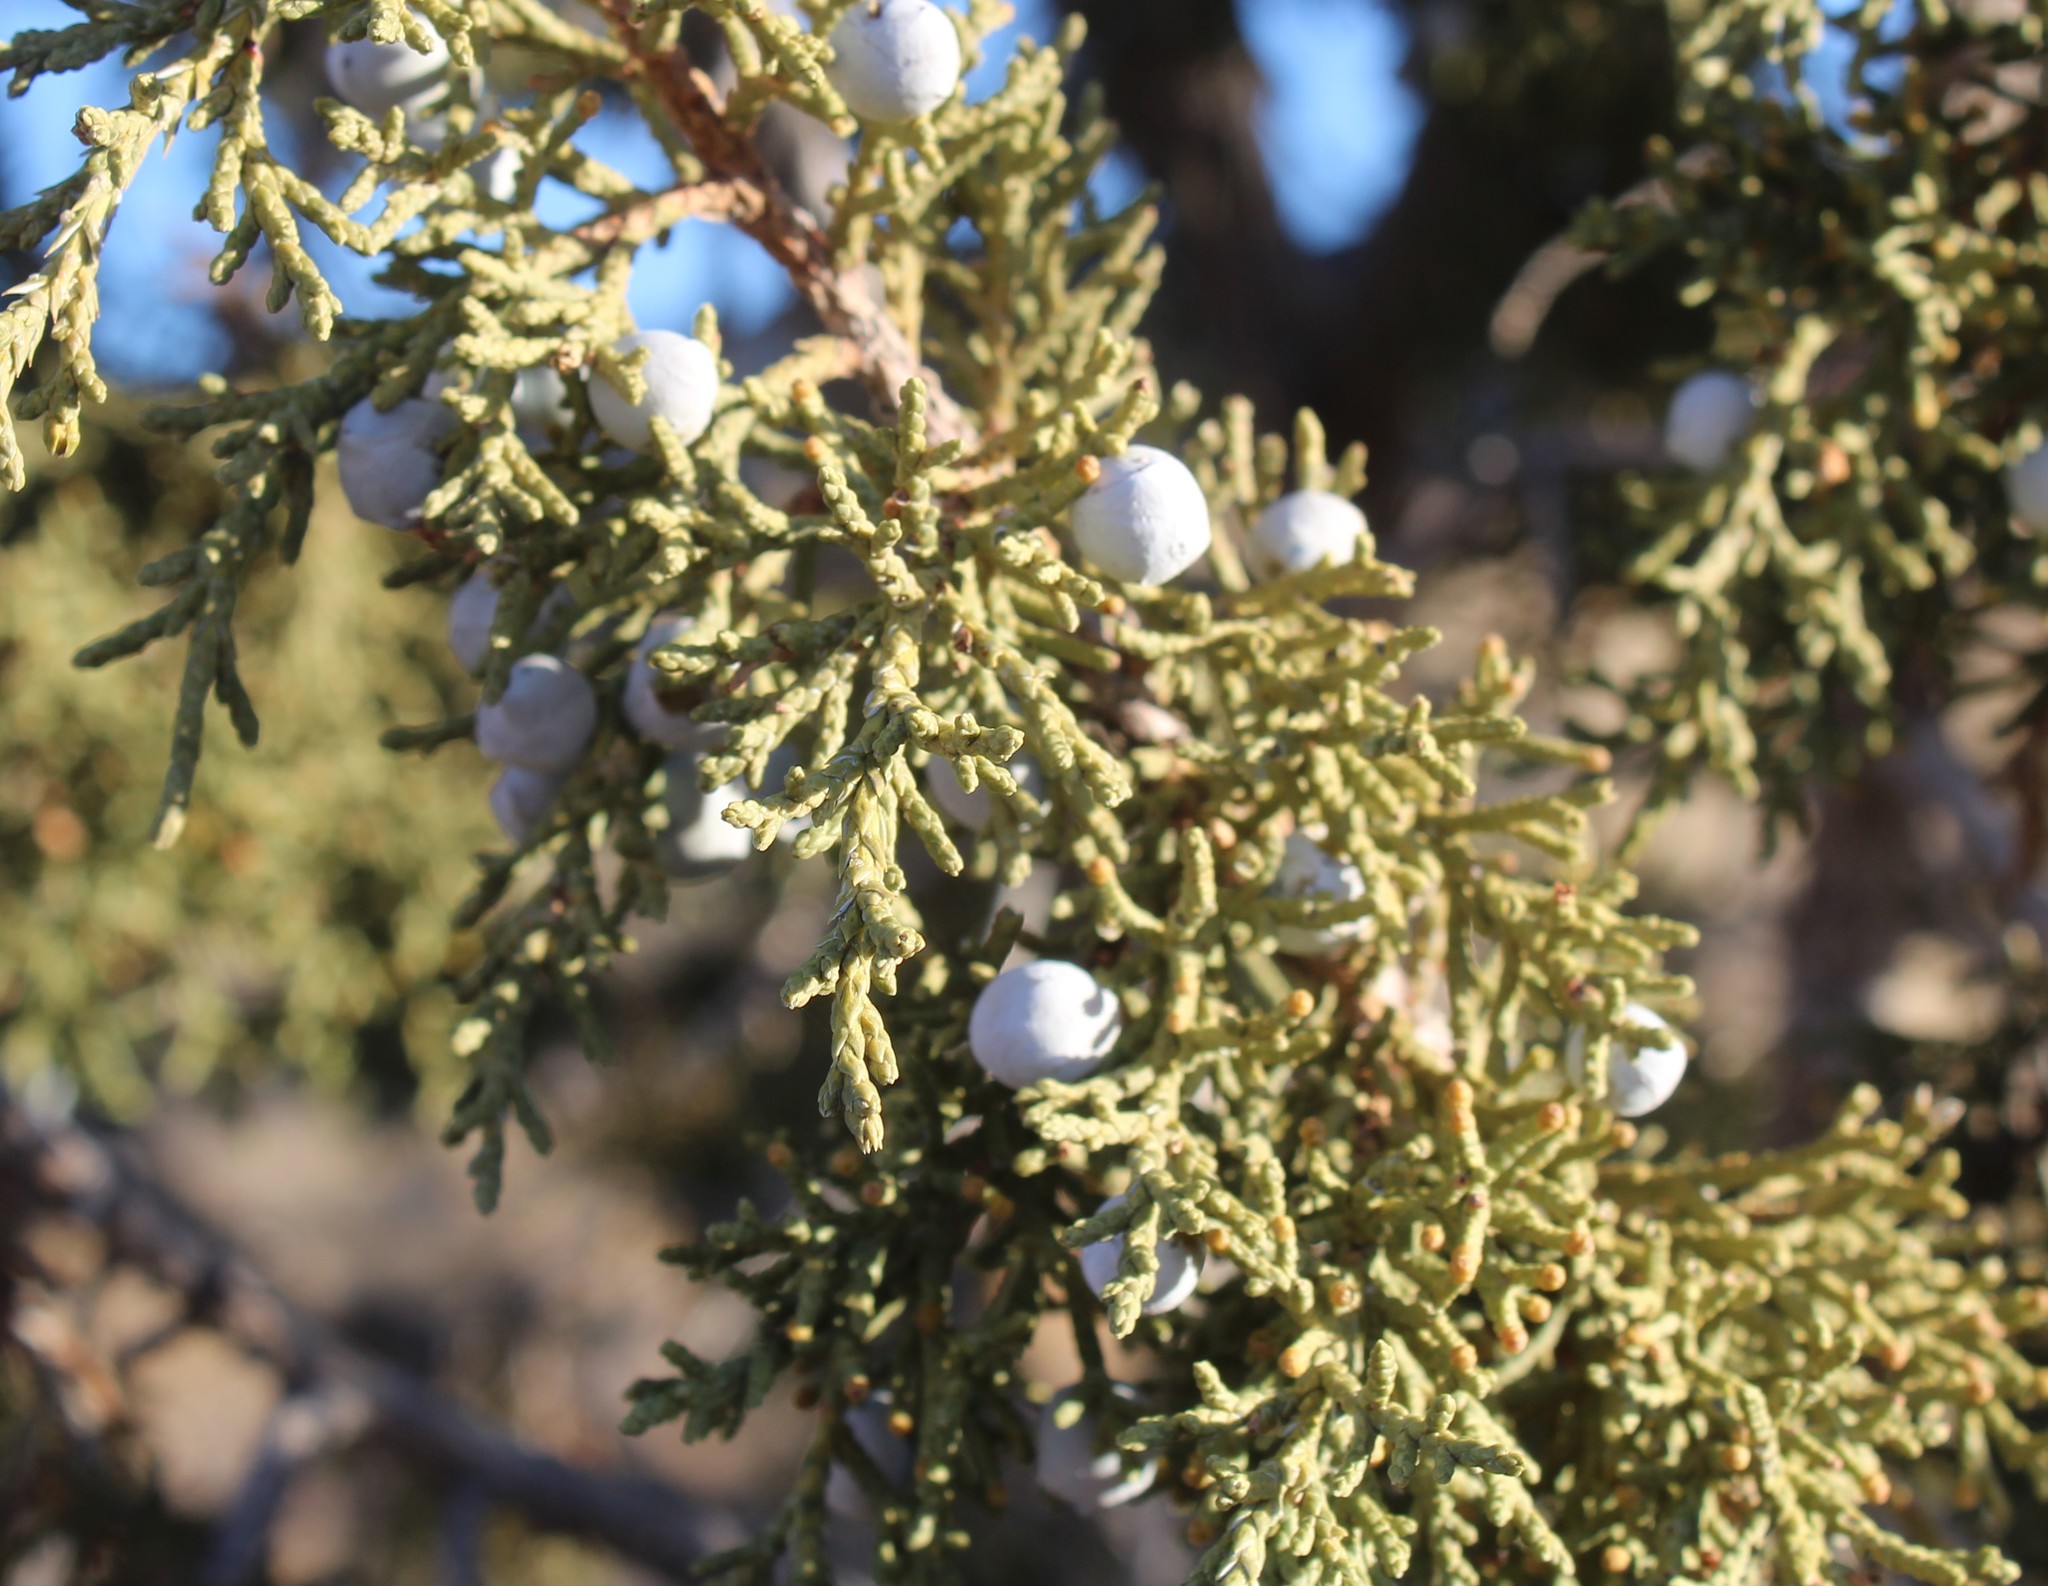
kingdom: Plantae
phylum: Tracheophyta
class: Pinopsida
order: Pinales
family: Cupressaceae
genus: Juniperus
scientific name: Juniperus osteosperma
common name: Utah juniper
